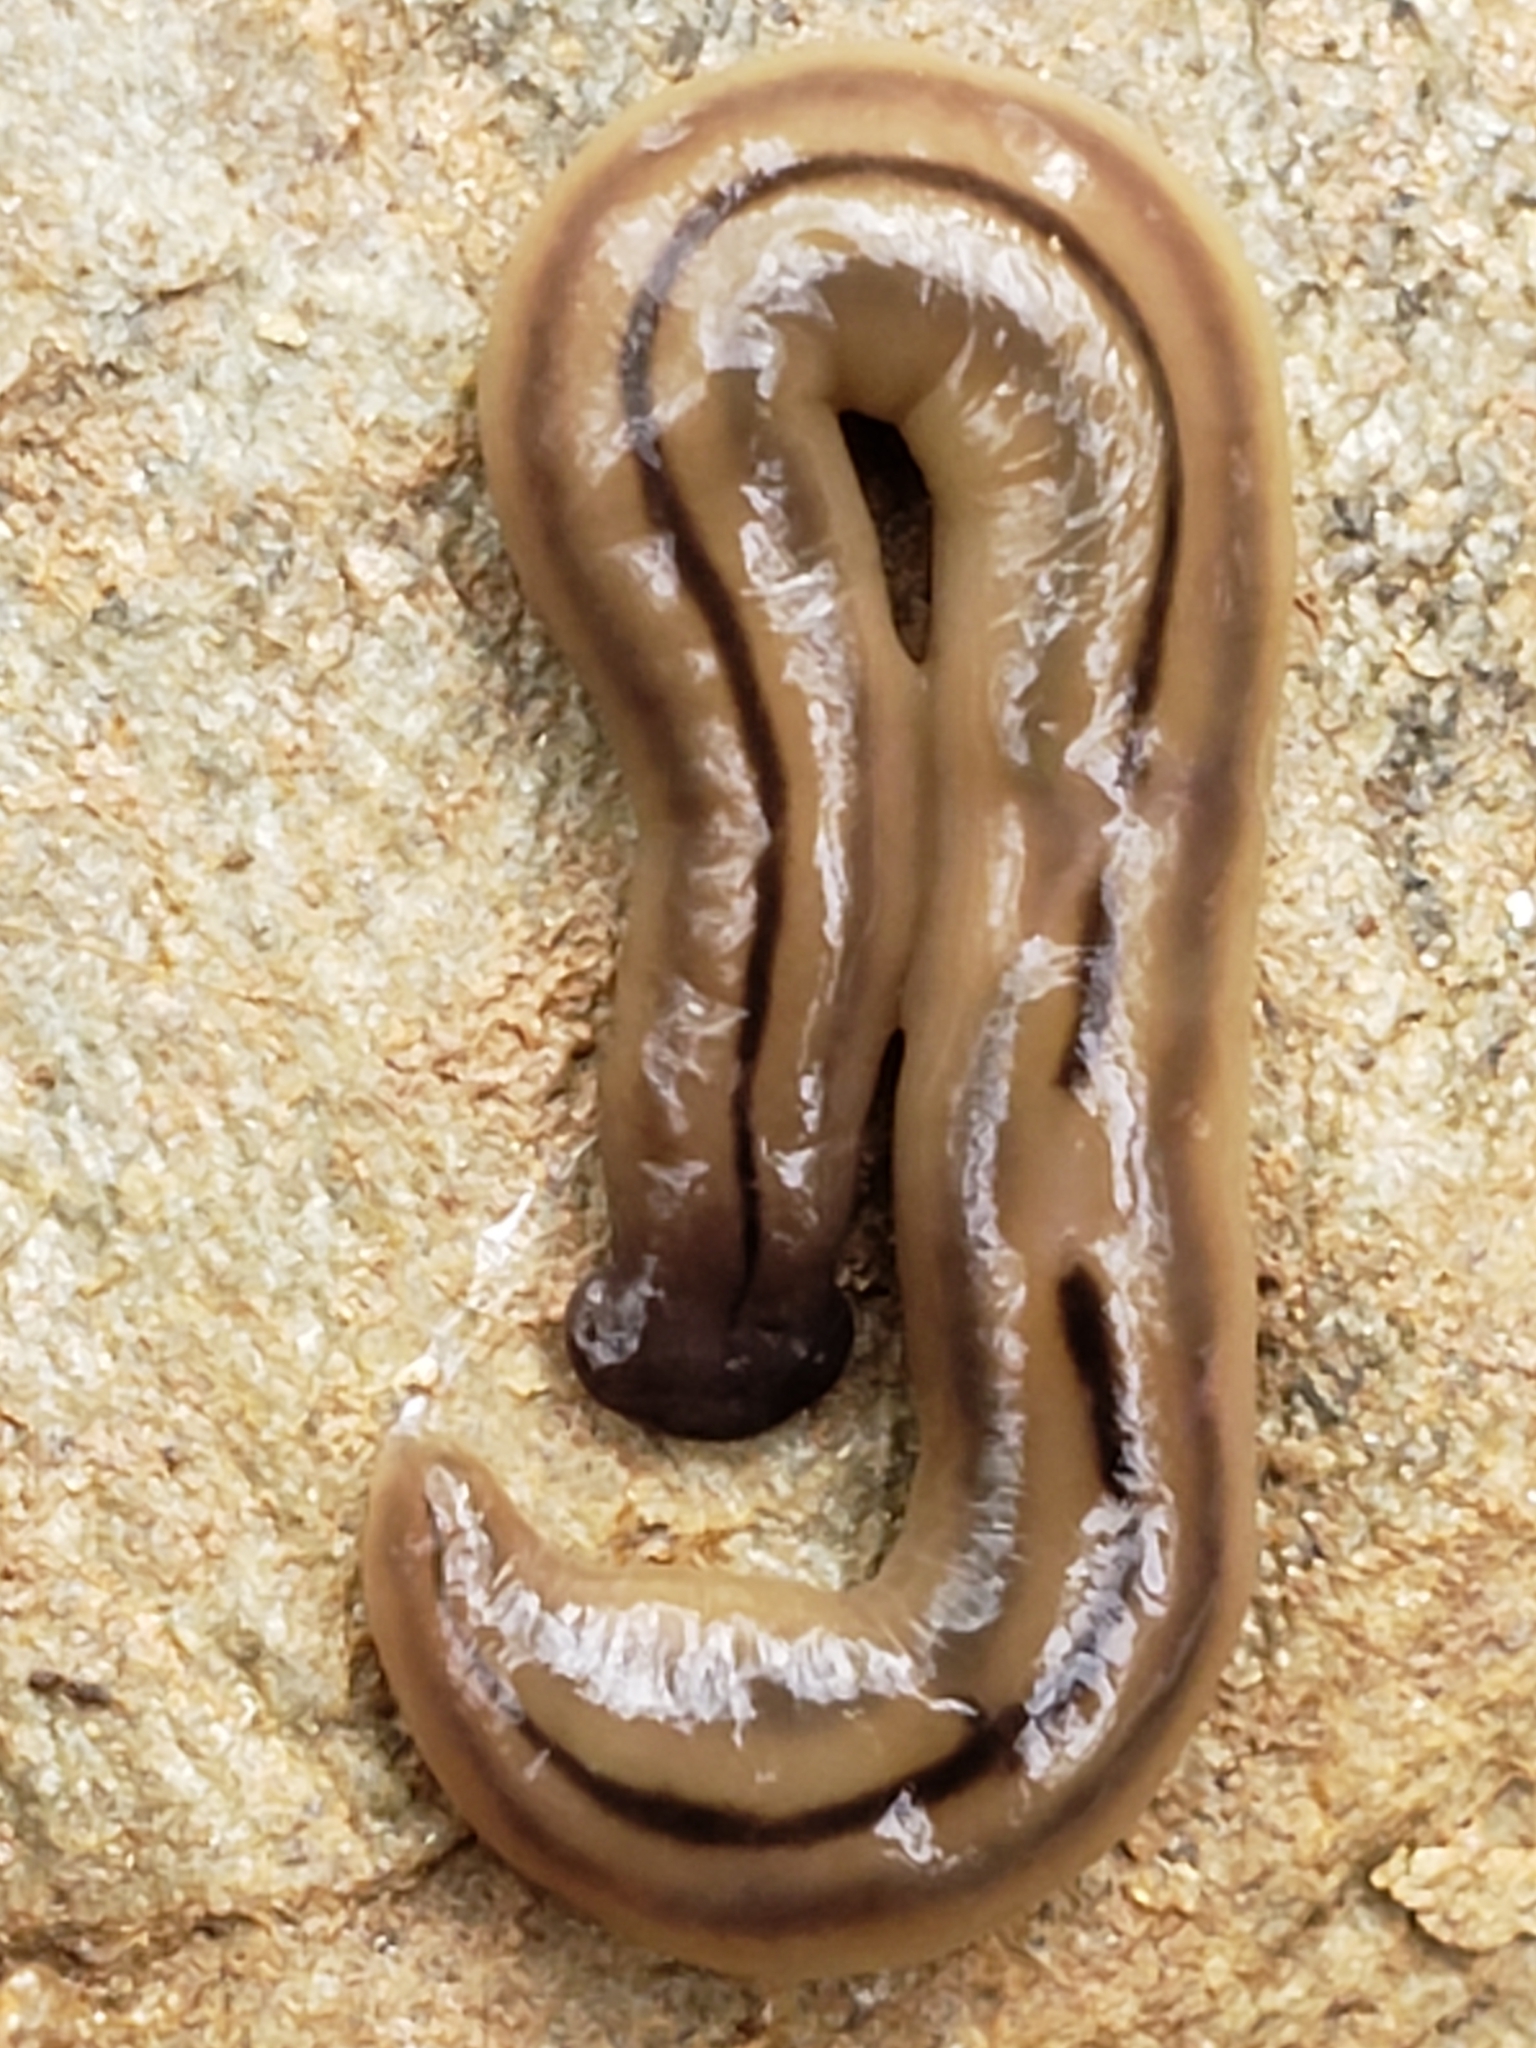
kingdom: Animalia
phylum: Platyhelminthes
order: Tricladida
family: Geoplanidae
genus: Bipalium
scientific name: Bipalium pennsylvanicum
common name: Three-lined land planarian
